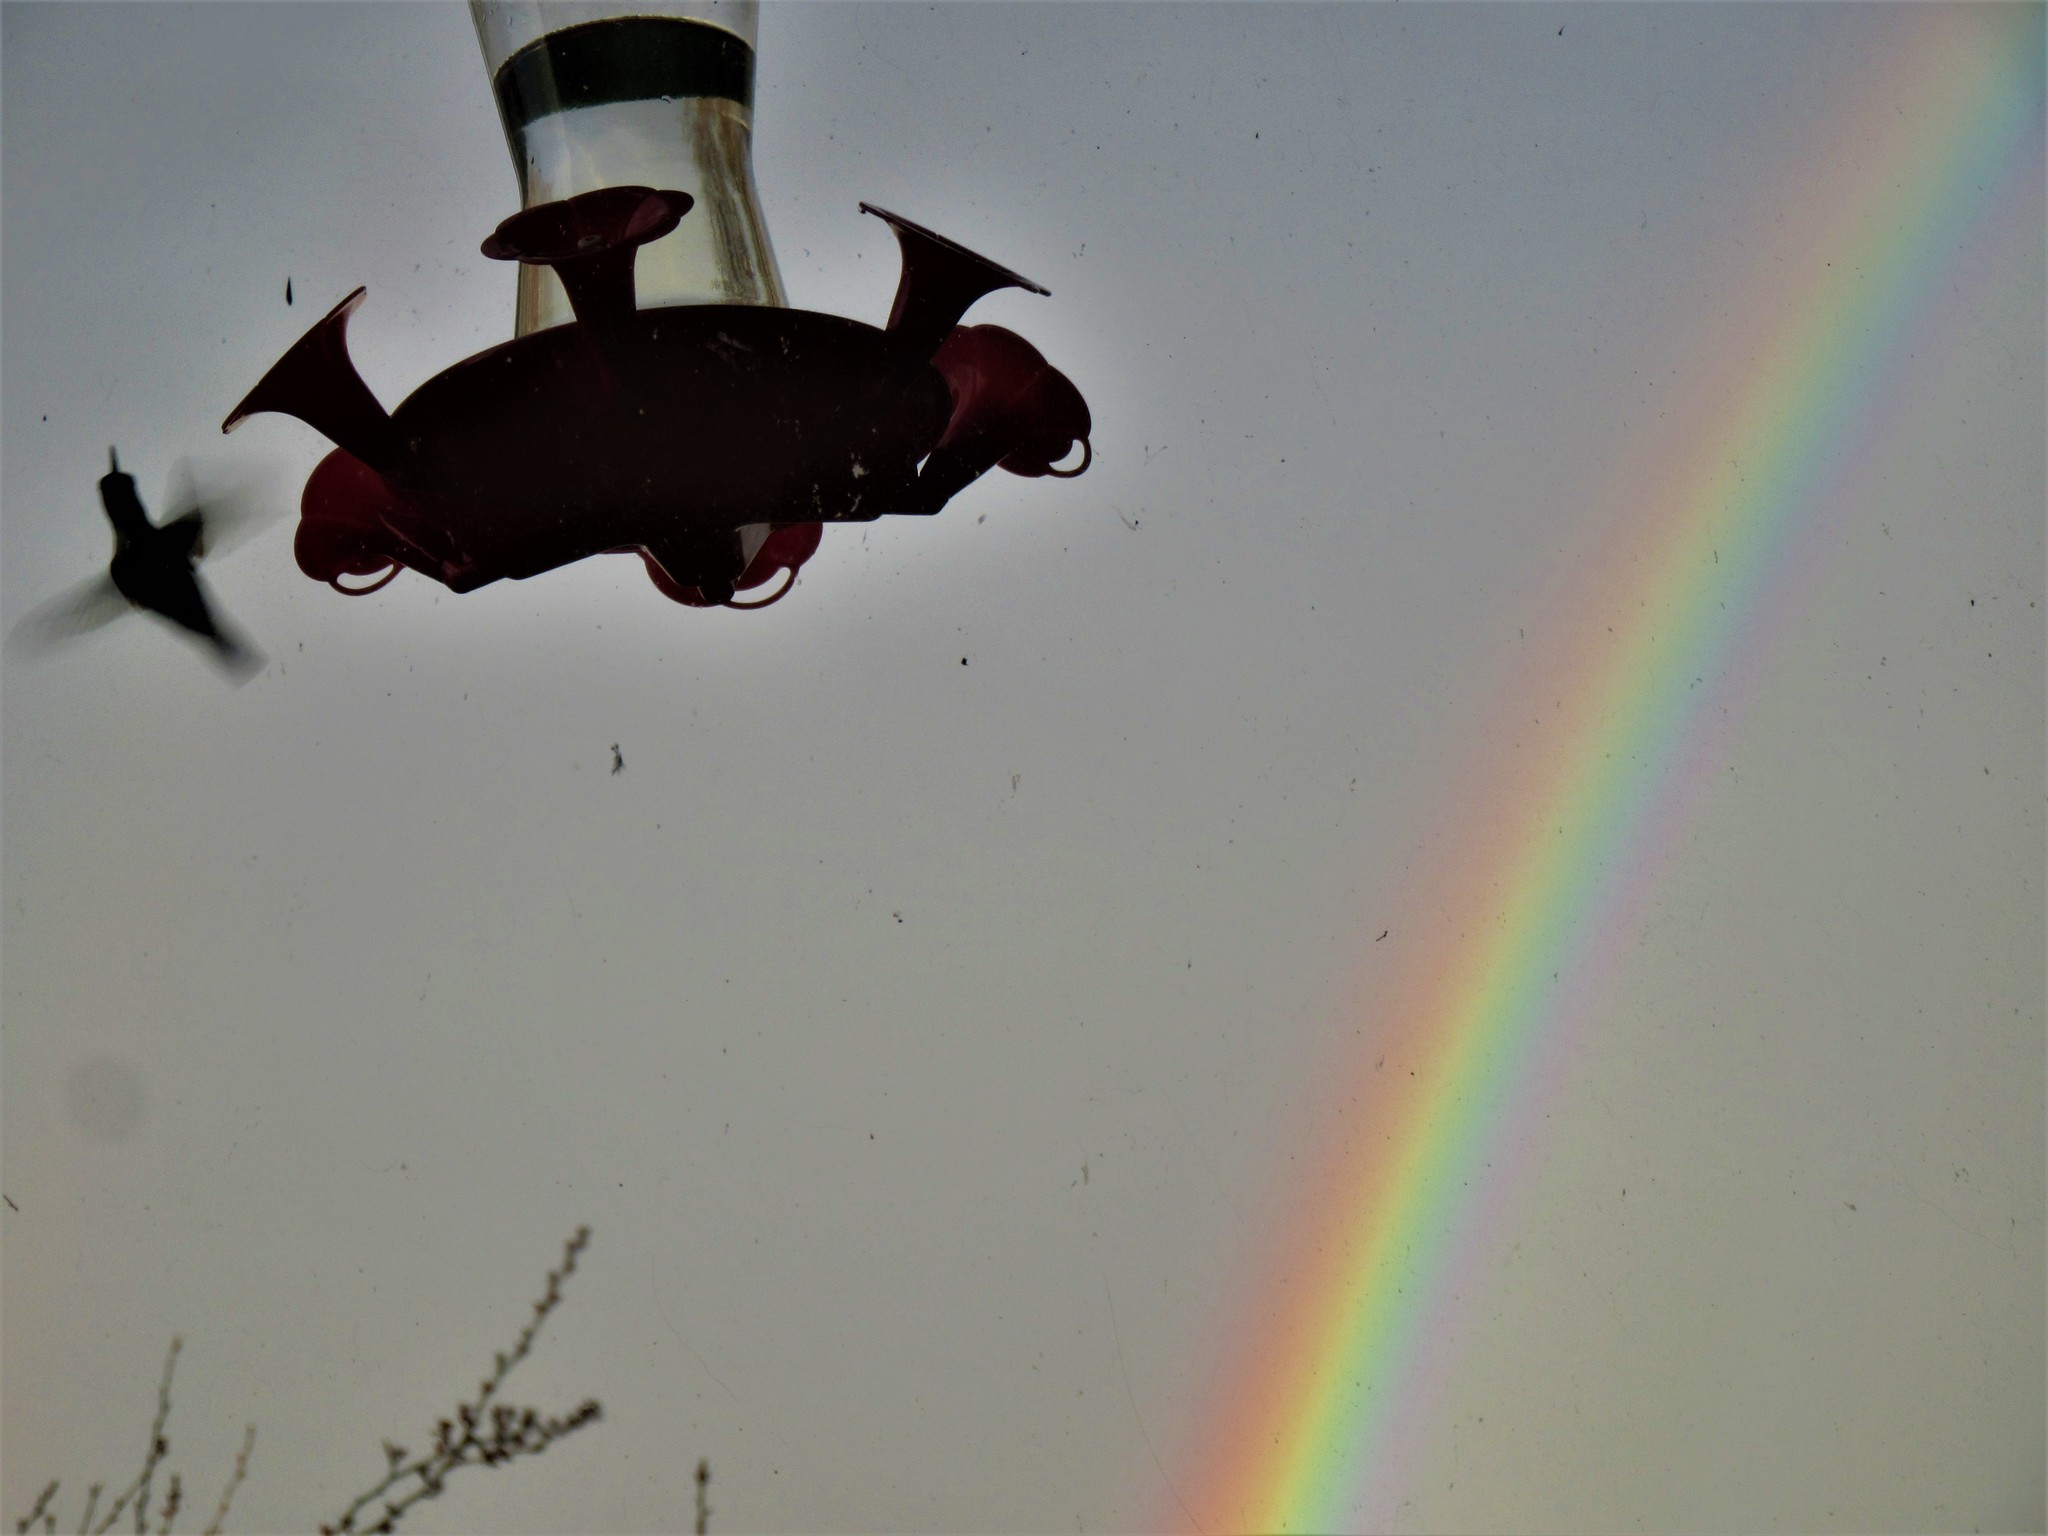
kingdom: Animalia
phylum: Chordata
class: Aves
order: Apodiformes
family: Trochilidae
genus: Archilochus
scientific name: Archilochus colubris
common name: Ruby-throated hummingbird
